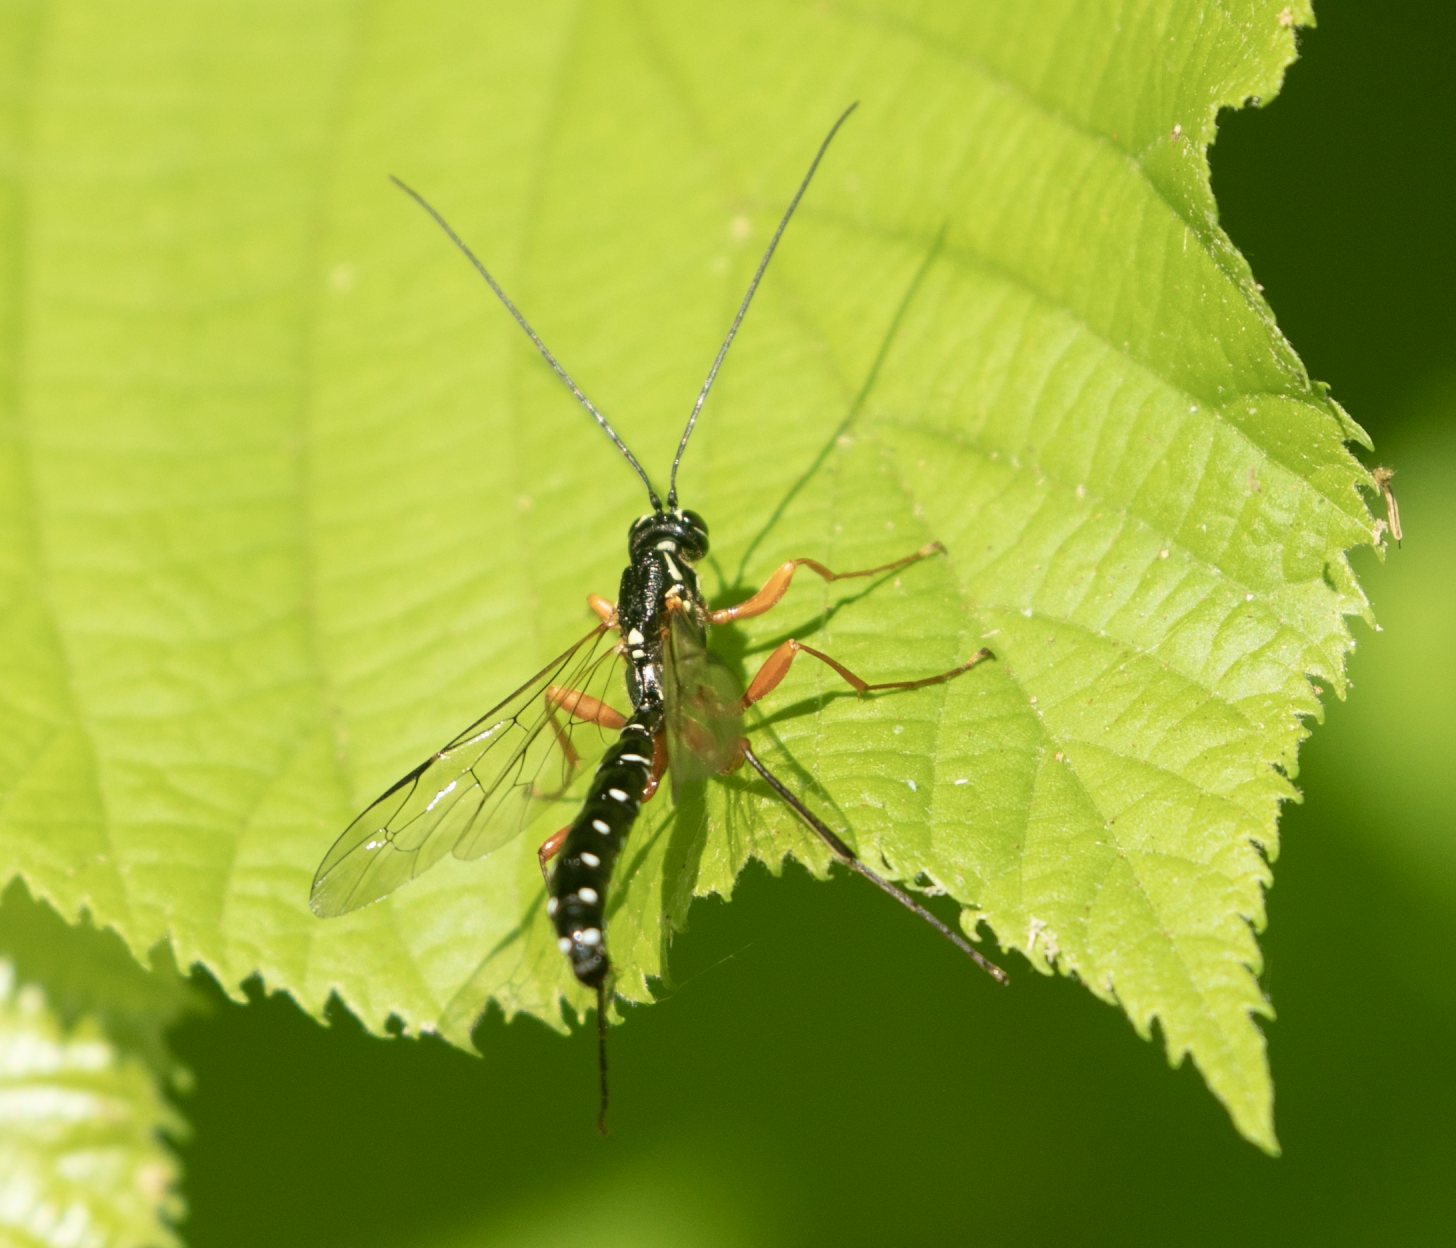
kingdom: Animalia
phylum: Arthropoda
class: Insecta
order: Hymenoptera
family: Ichneumonidae
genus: Rhyssa
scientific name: Rhyssa persuasoria
